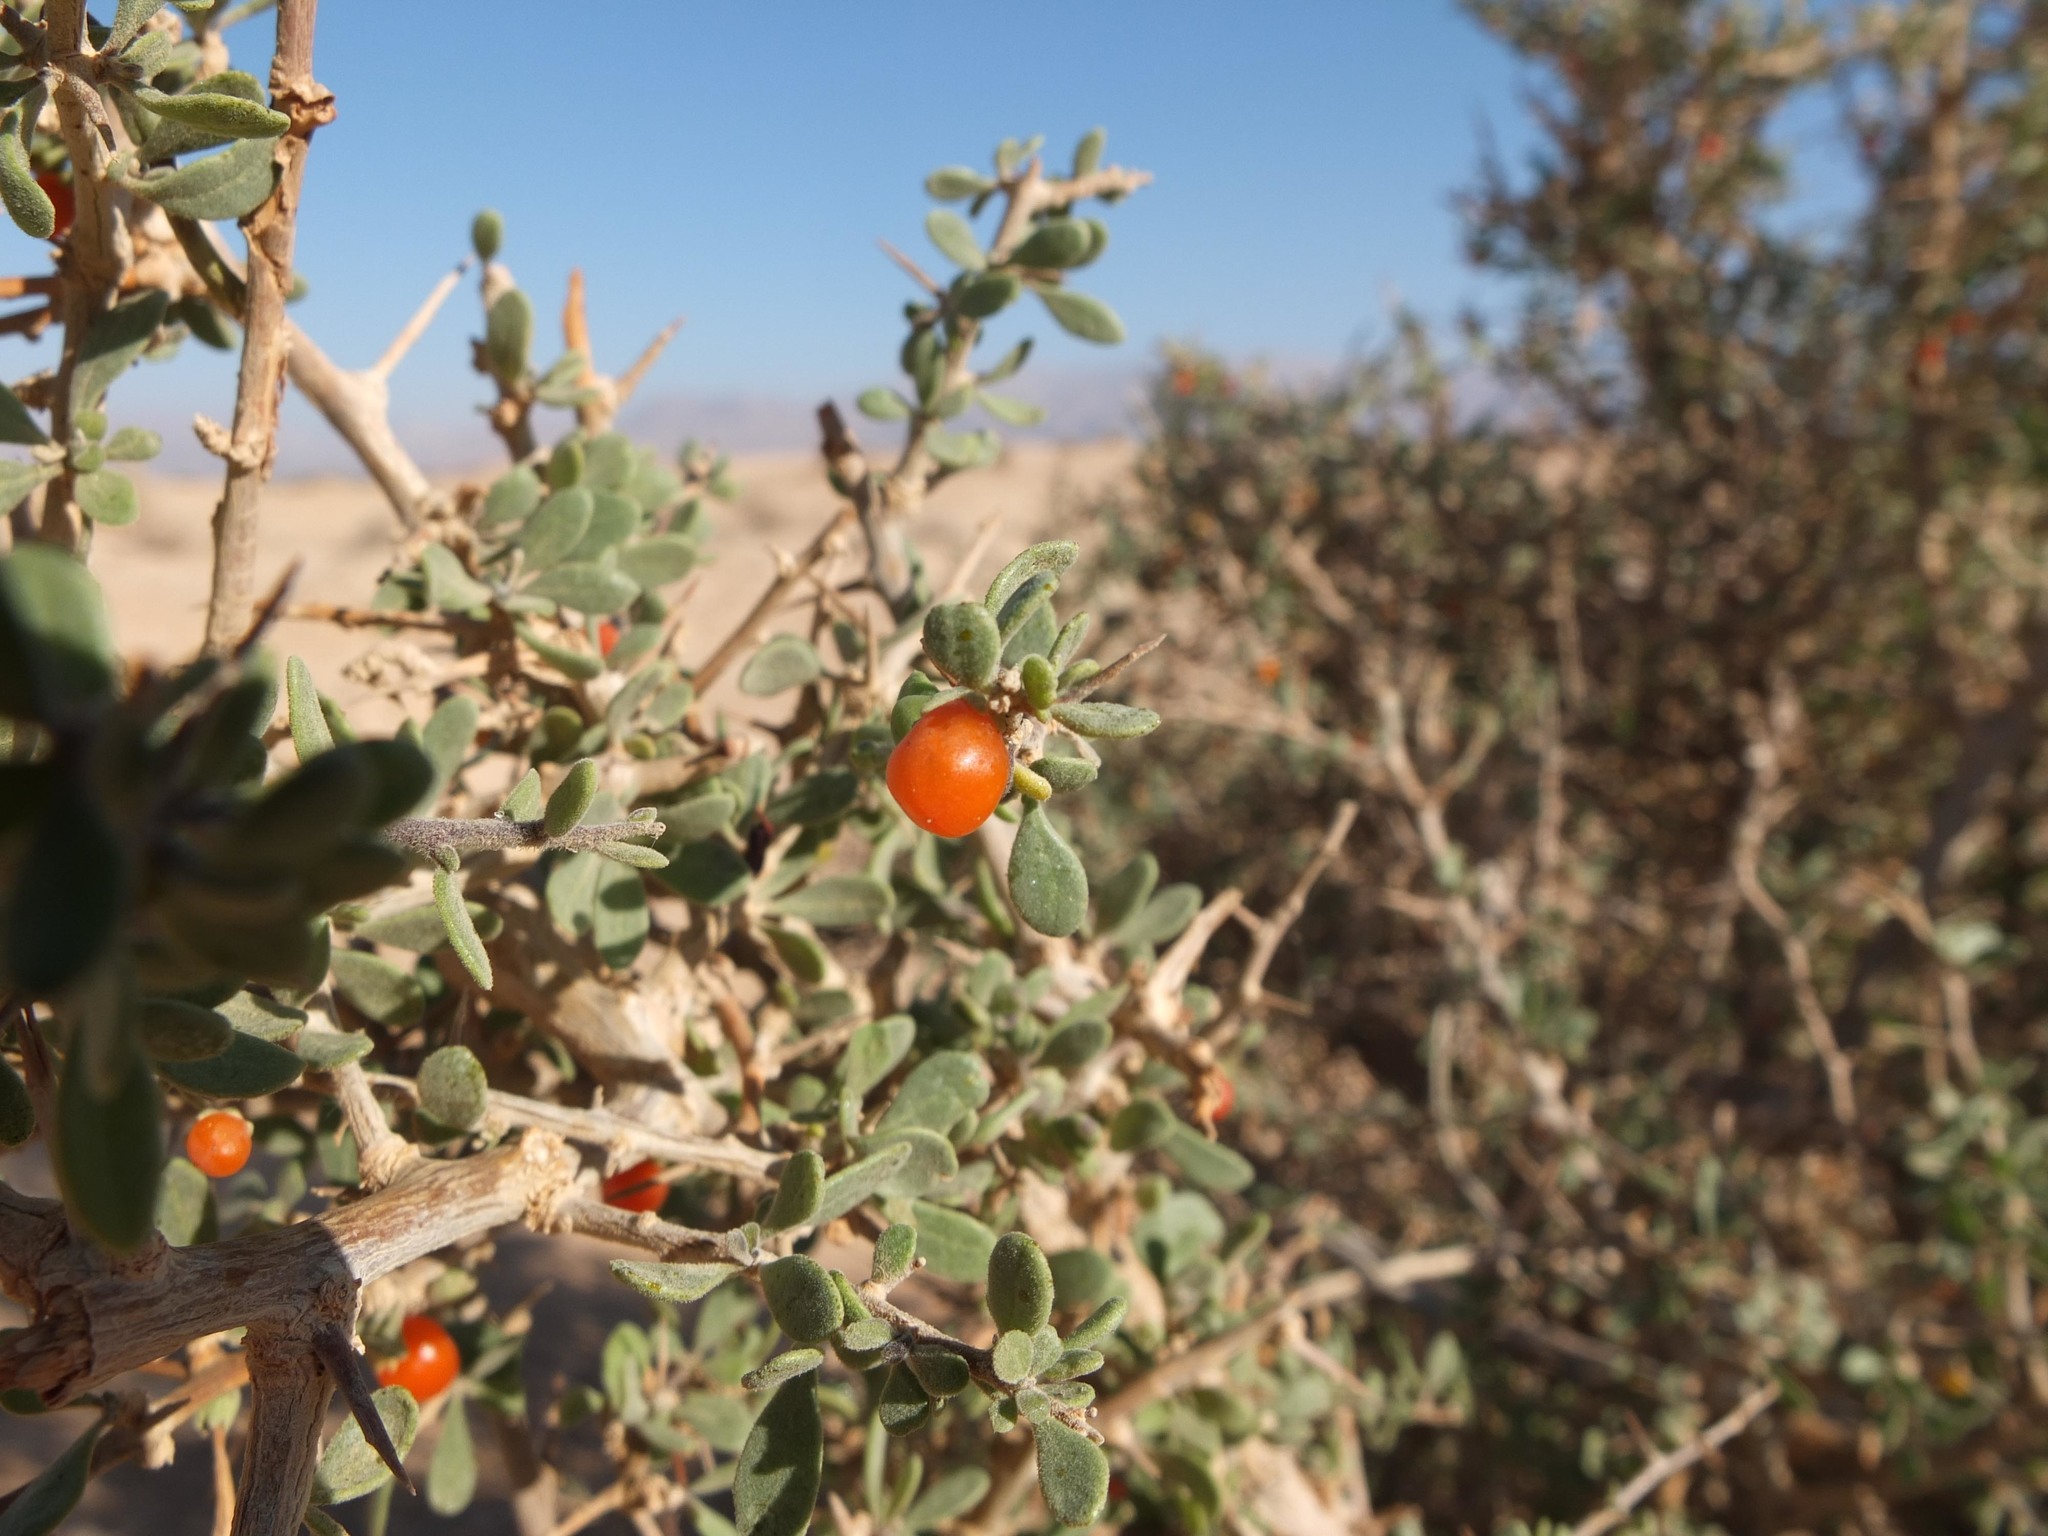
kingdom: Plantae
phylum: Tracheophyta
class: Magnoliopsida
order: Sapindales
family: Nitrariaceae
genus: Nitraria
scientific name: Nitraria retusa
